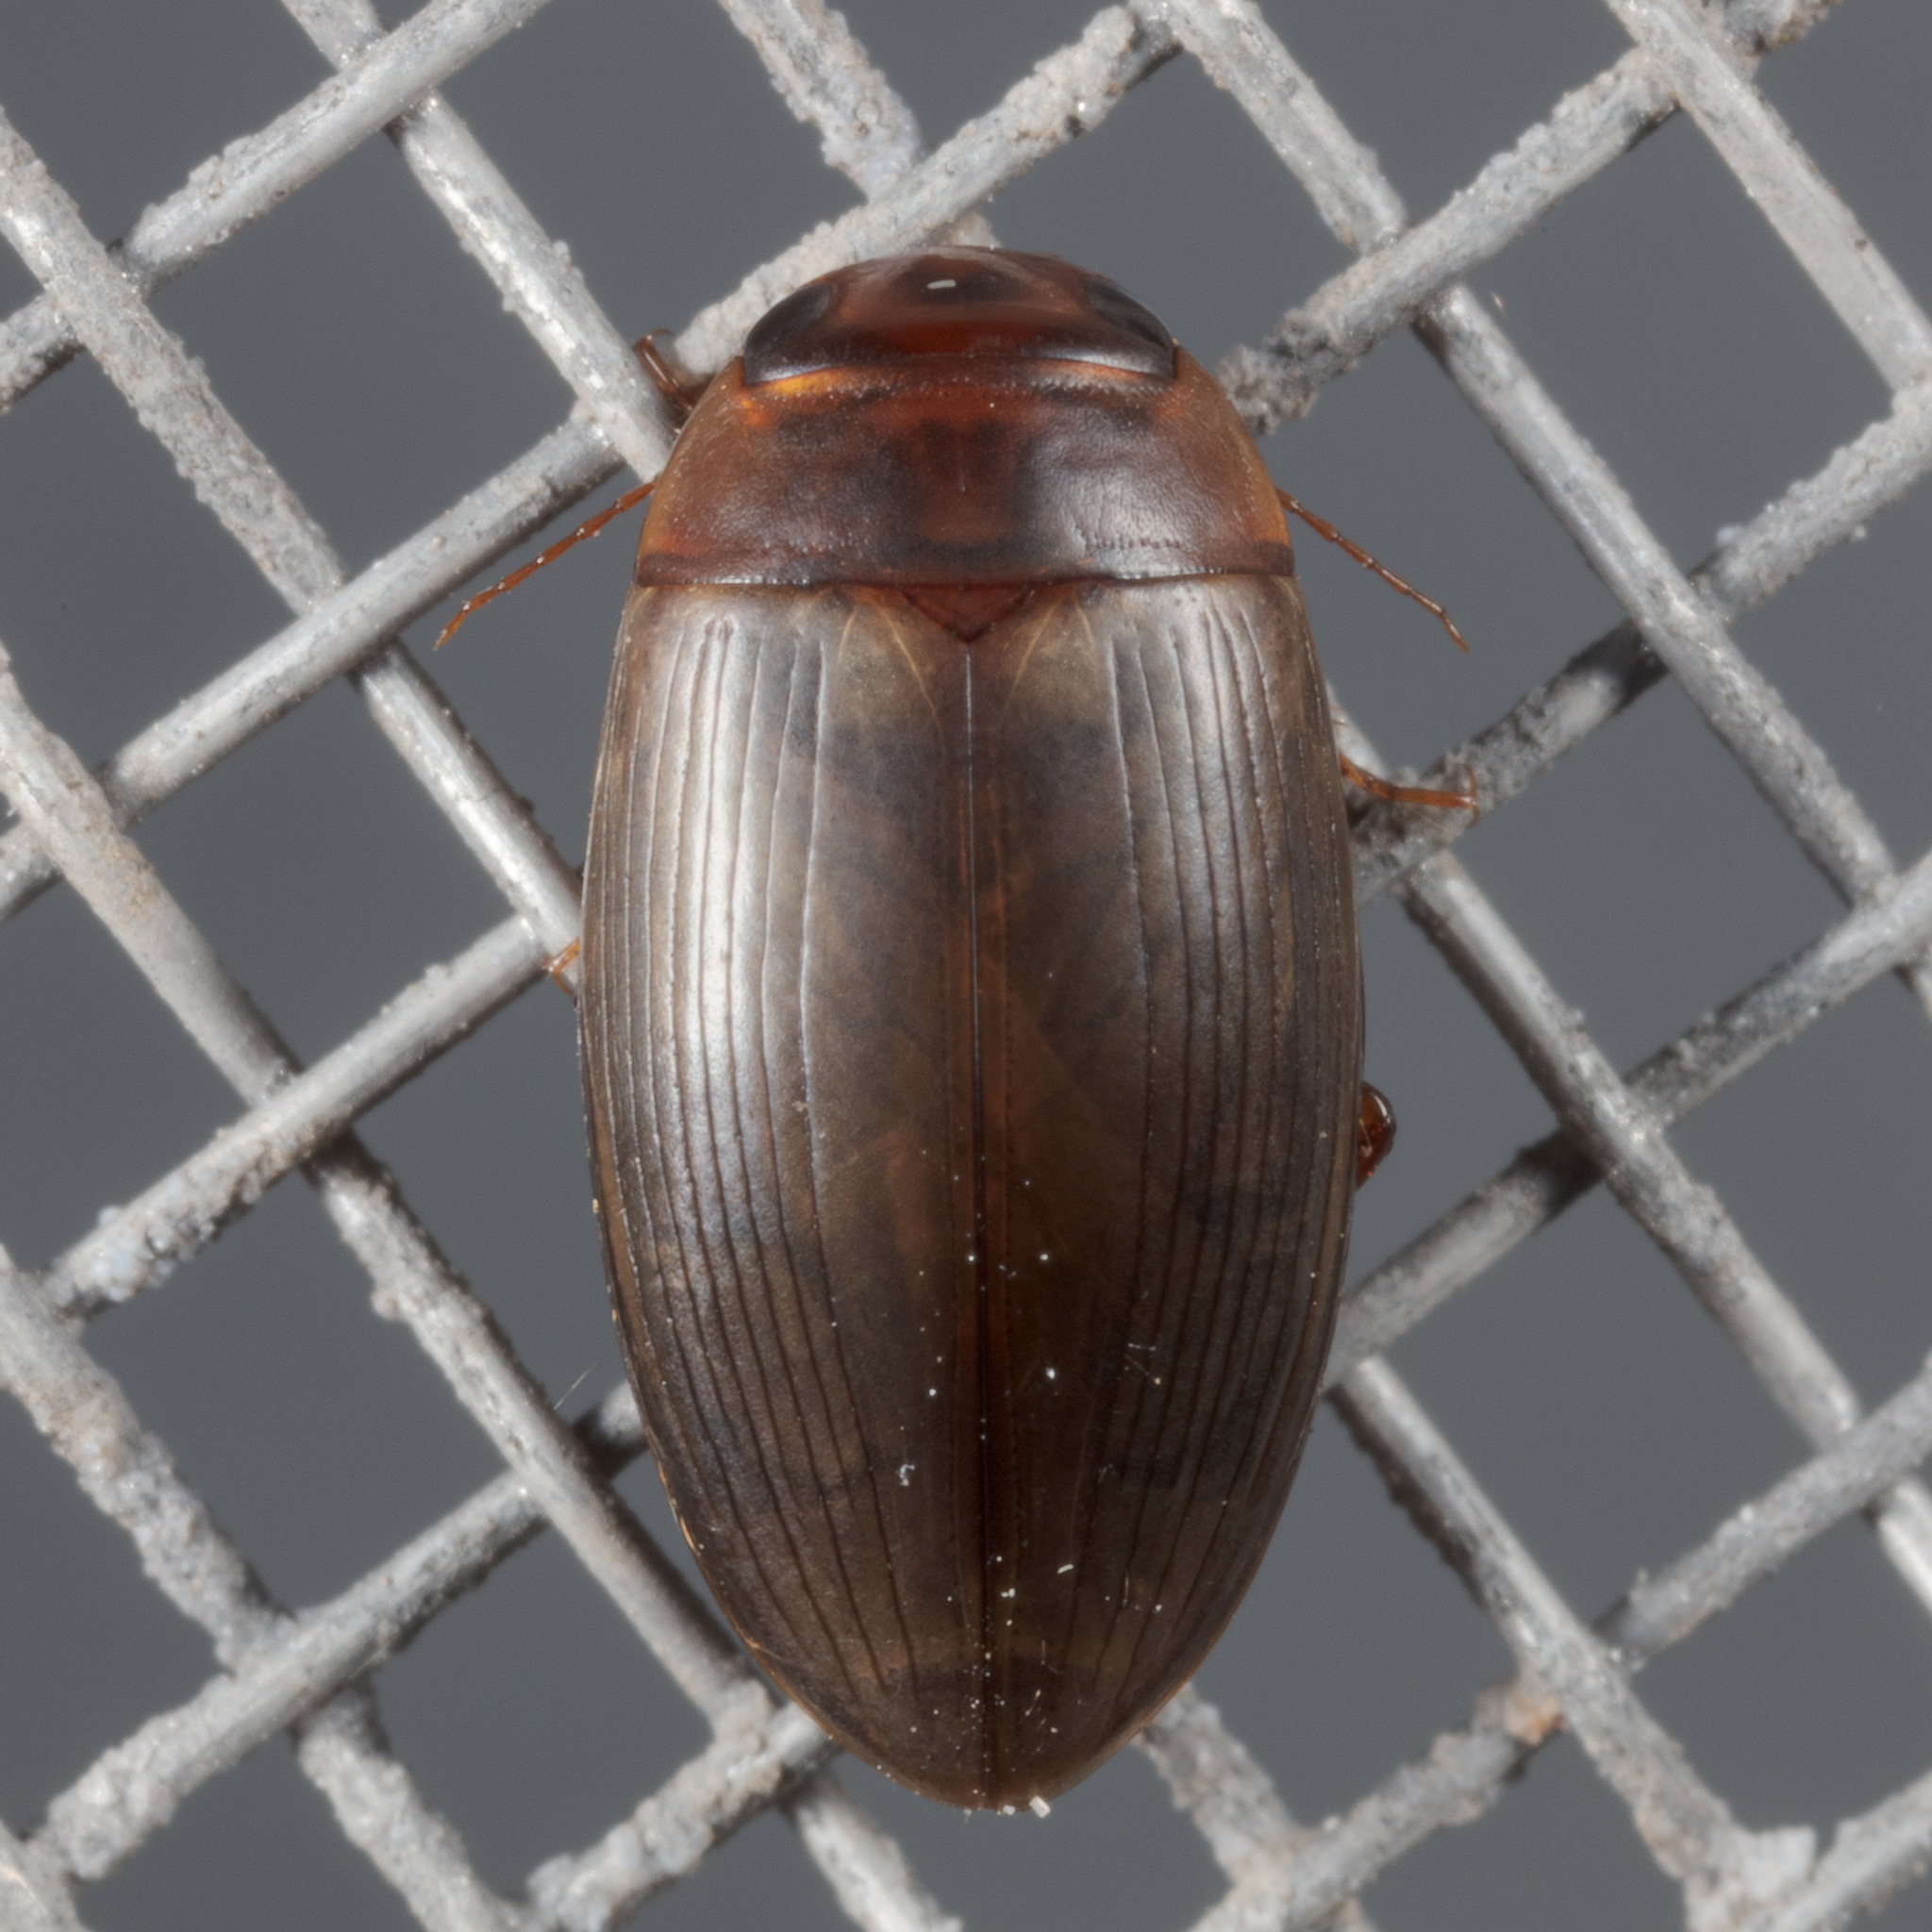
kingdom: Animalia
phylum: Arthropoda
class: Insecta
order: Coleoptera
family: Dytiscidae
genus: Copelatus
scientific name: Copelatus chevrolati
